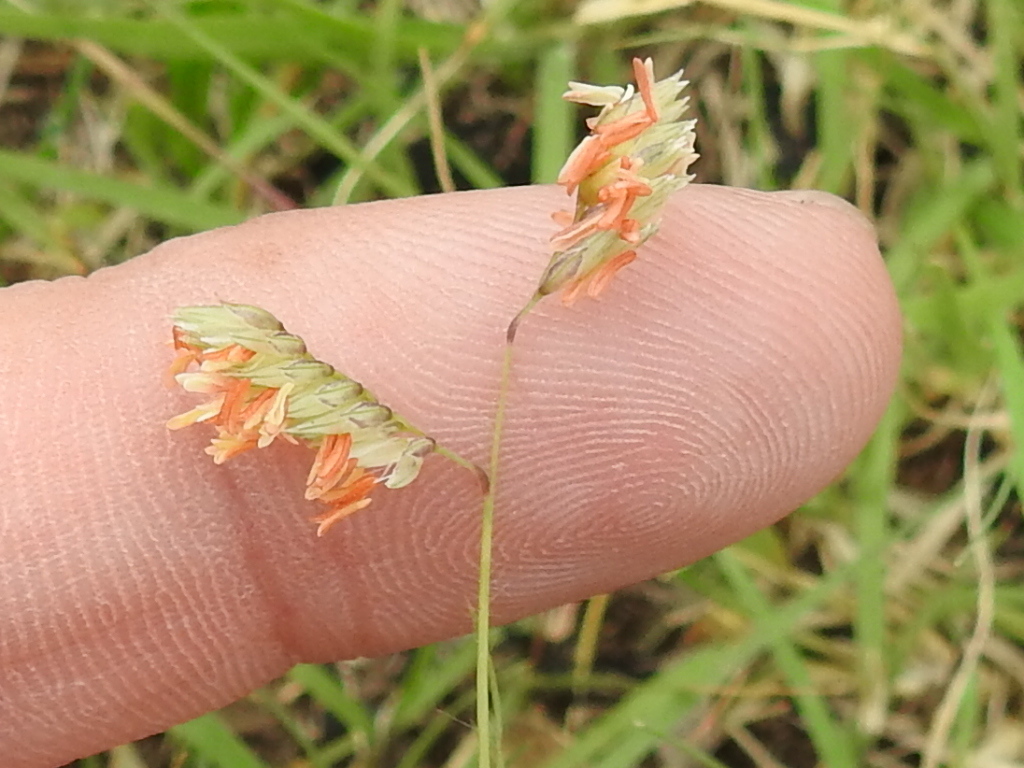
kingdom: Plantae
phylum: Tracheophyta
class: Liliopsida
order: Poales
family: Poaceae
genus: Bouteloua
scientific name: Bouteloua dactyloides
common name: Buffalo grass
